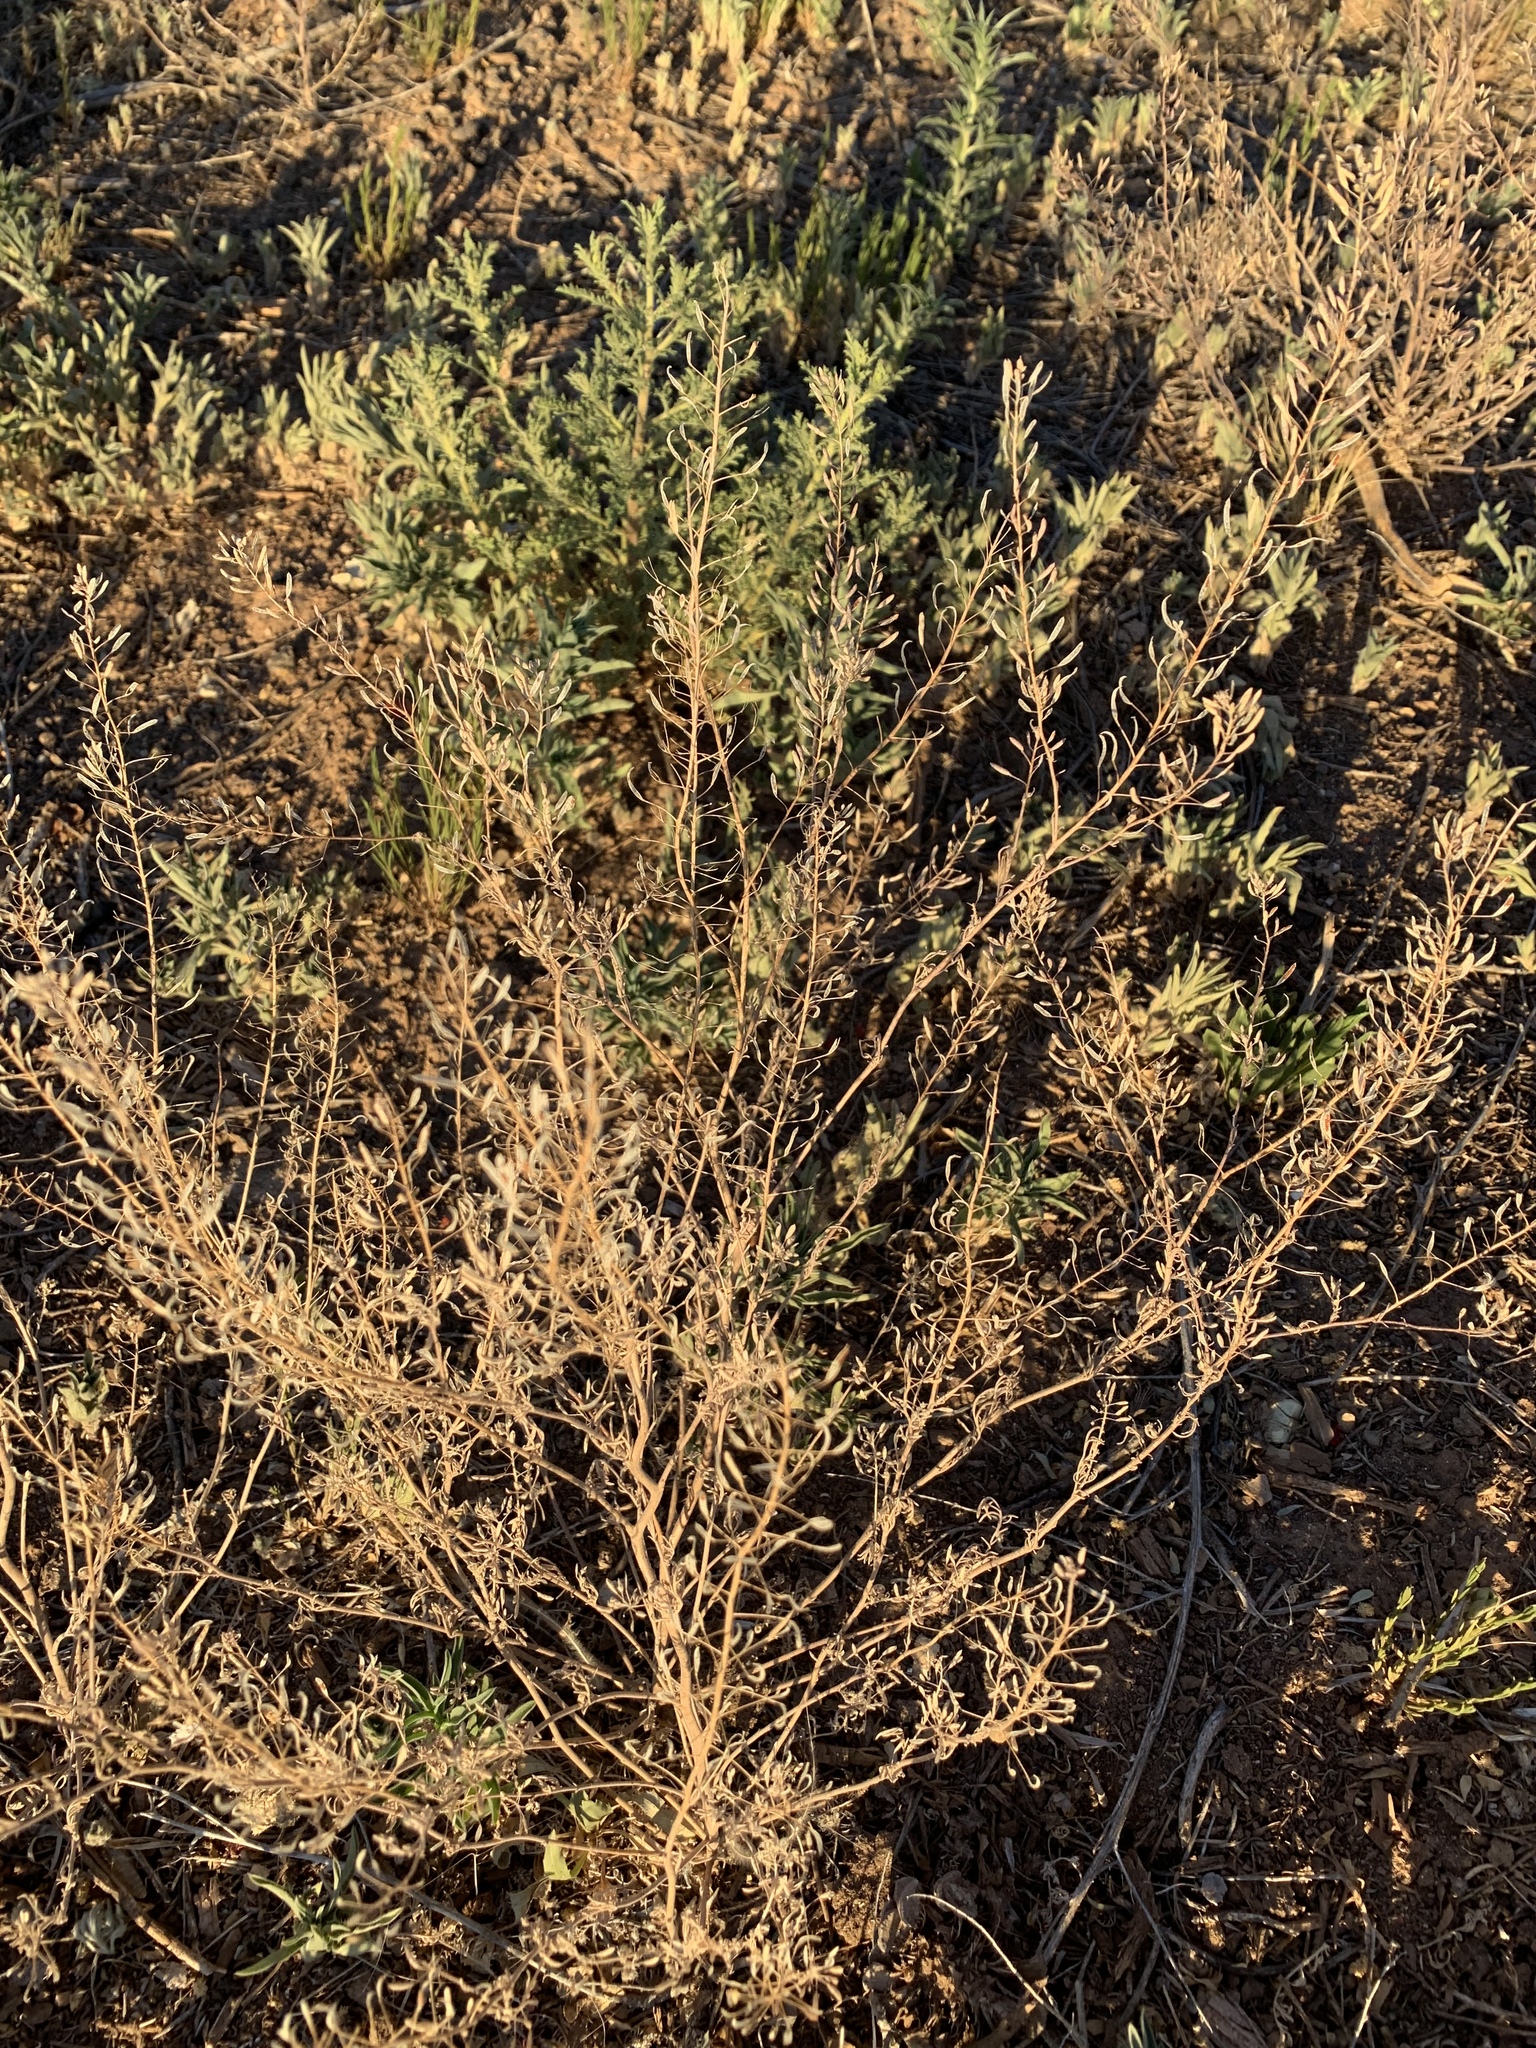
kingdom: Plantae
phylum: Tracheophyta
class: Magnoliopsida
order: Brassicales
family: Brassicaceae
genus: Descurainia
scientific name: Descurainia pinnata
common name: Western tansy mustard
